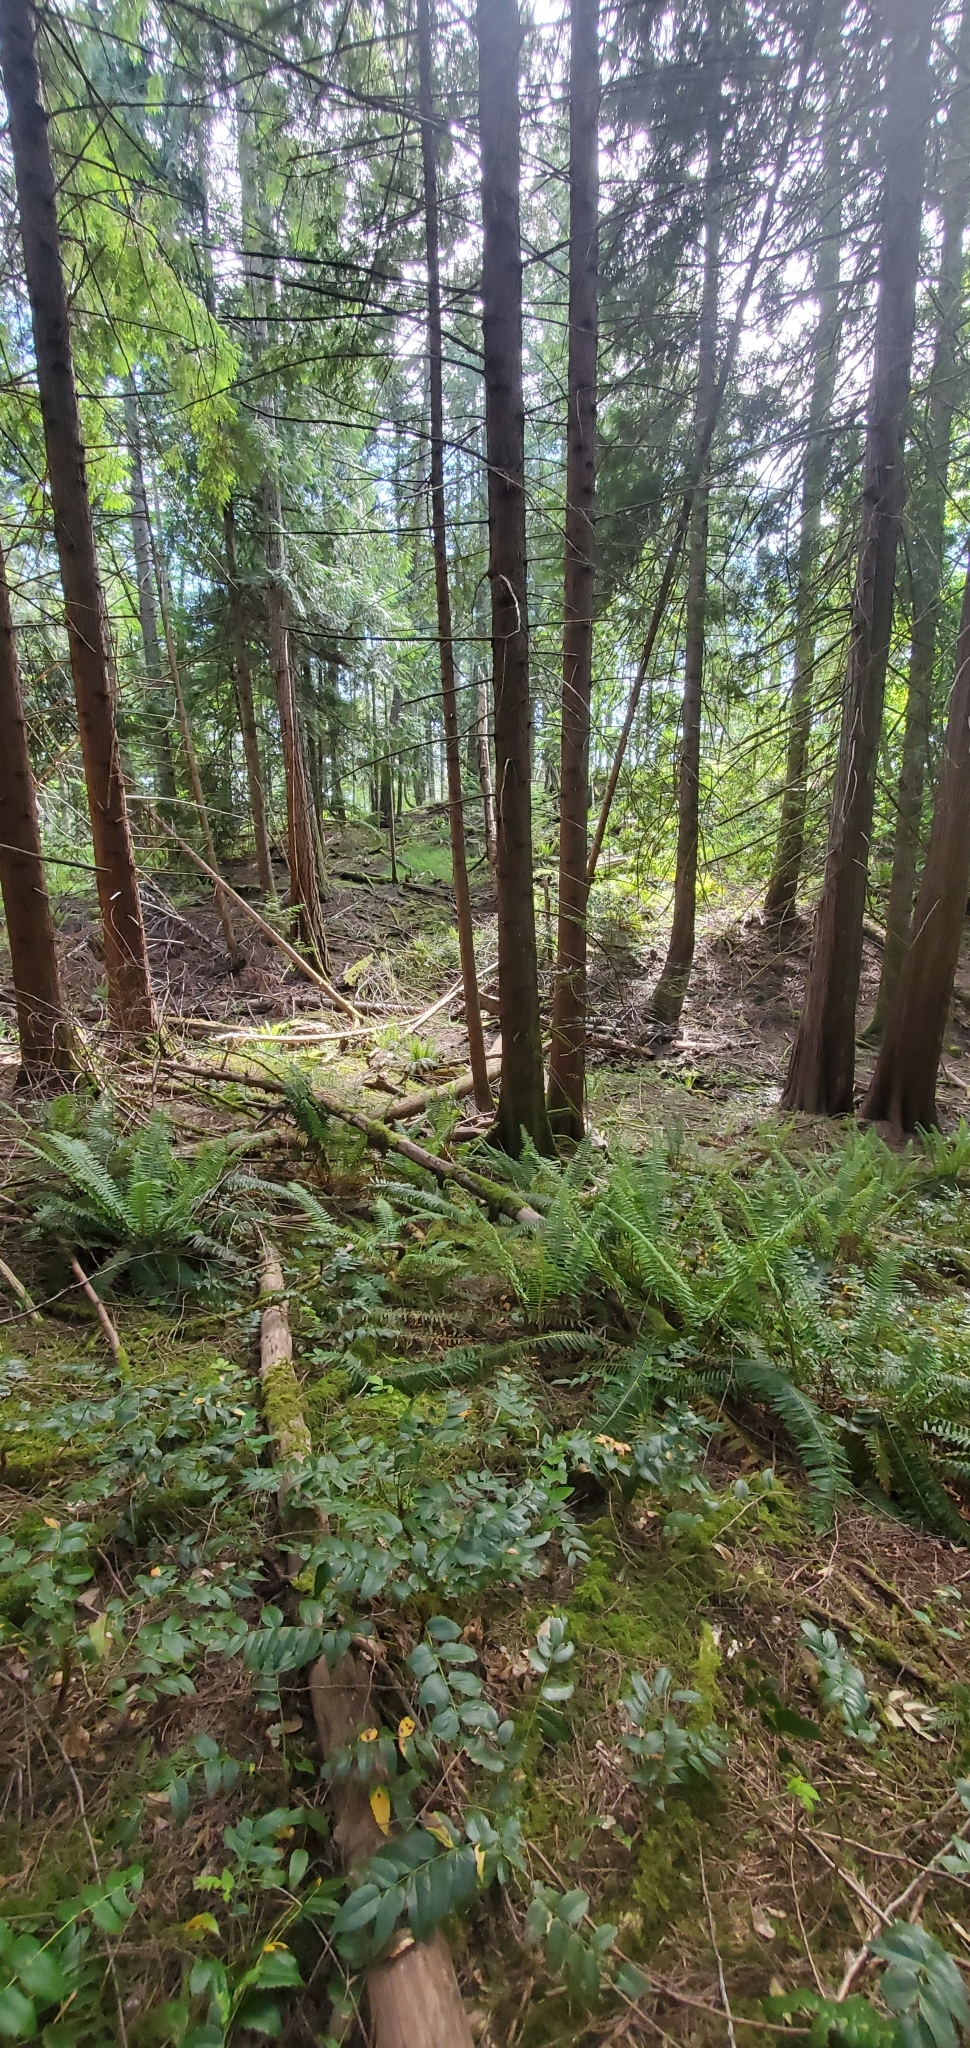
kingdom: Plantae
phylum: Tracheophyta
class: Magnoliopsida
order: Ranunculales
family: Berberidaceae
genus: Mahonia
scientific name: Mahonia nervosa
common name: Cascade oregon-grape
